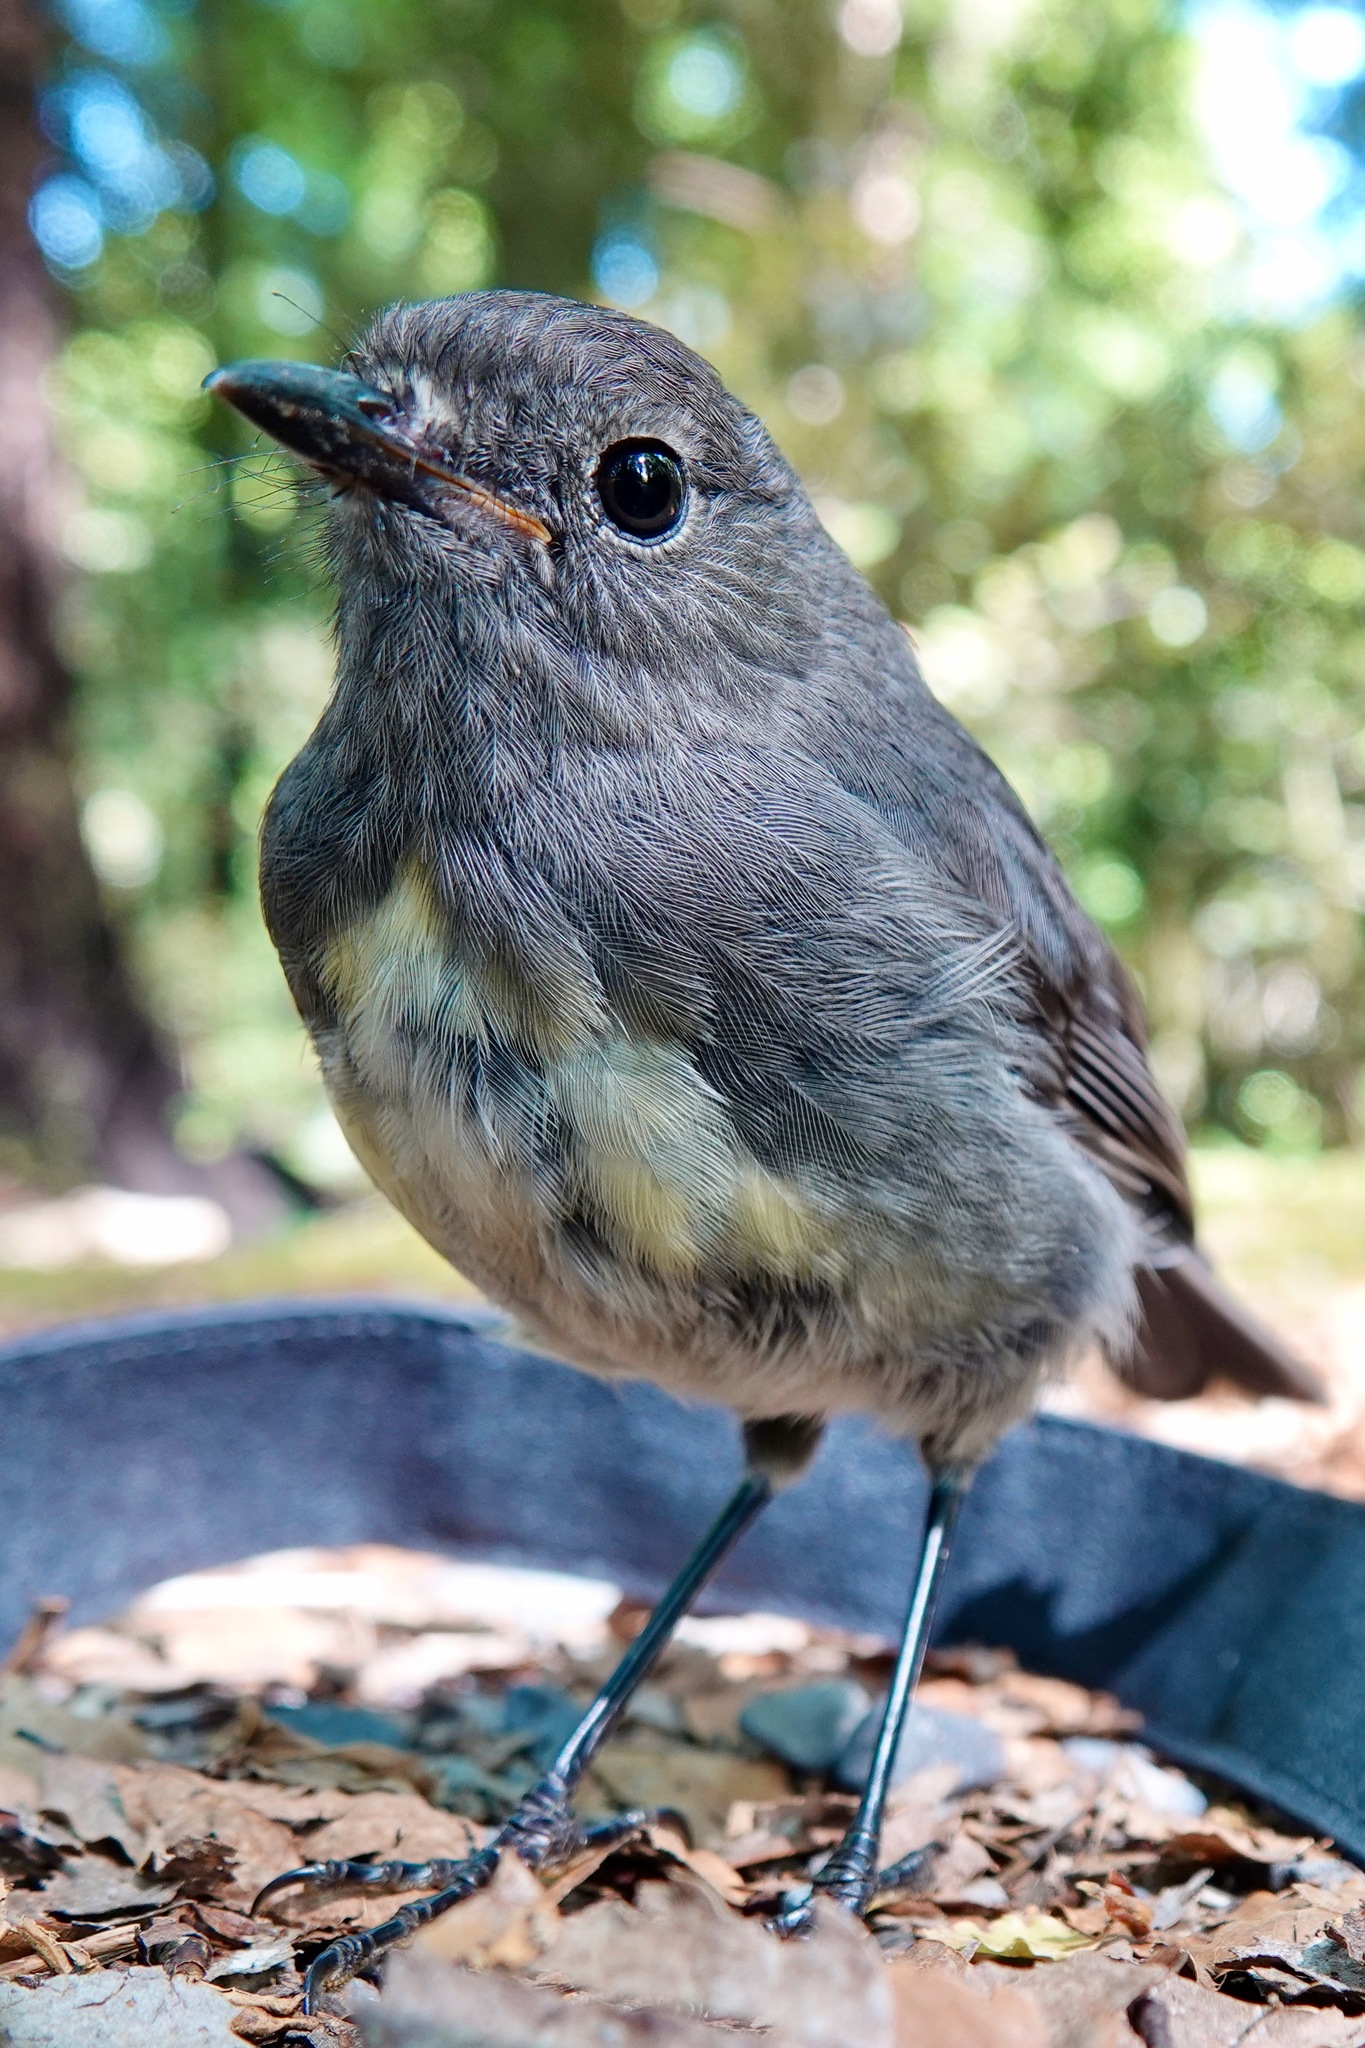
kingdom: Animalia
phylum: Chordata
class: Aves
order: Passeriformes
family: Petroicidae
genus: Petroica
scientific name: Petroica australis
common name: New zealand robin
